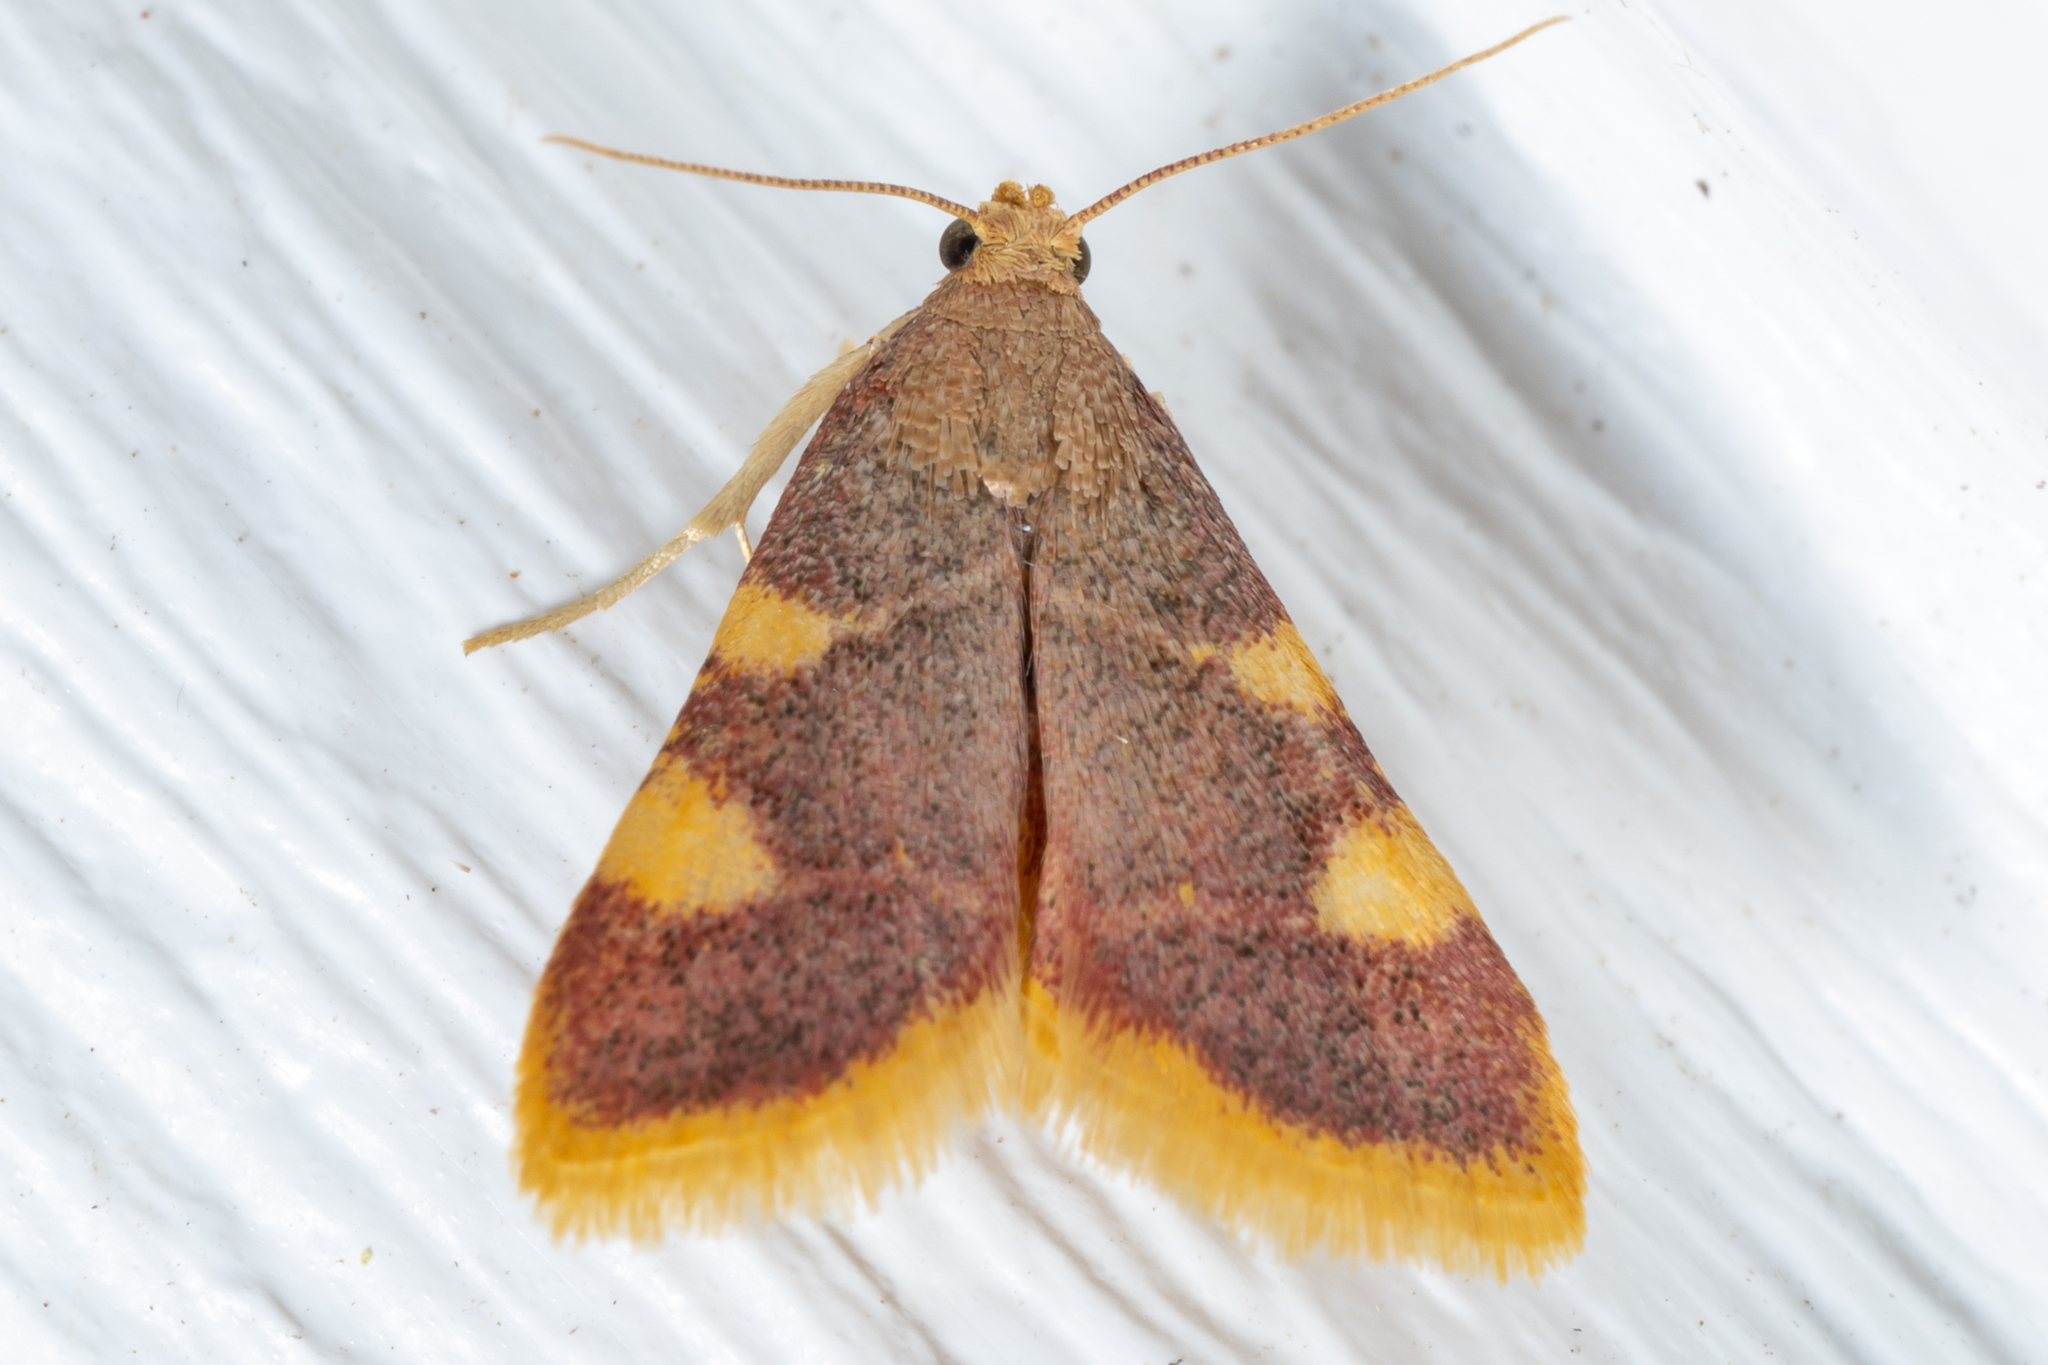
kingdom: Animalia
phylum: Arthropoda
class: Insecta
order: Lepidoptera
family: Pyralidae
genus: Hypsopygia
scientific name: Hypsopygia costalis
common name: Gold triangle
